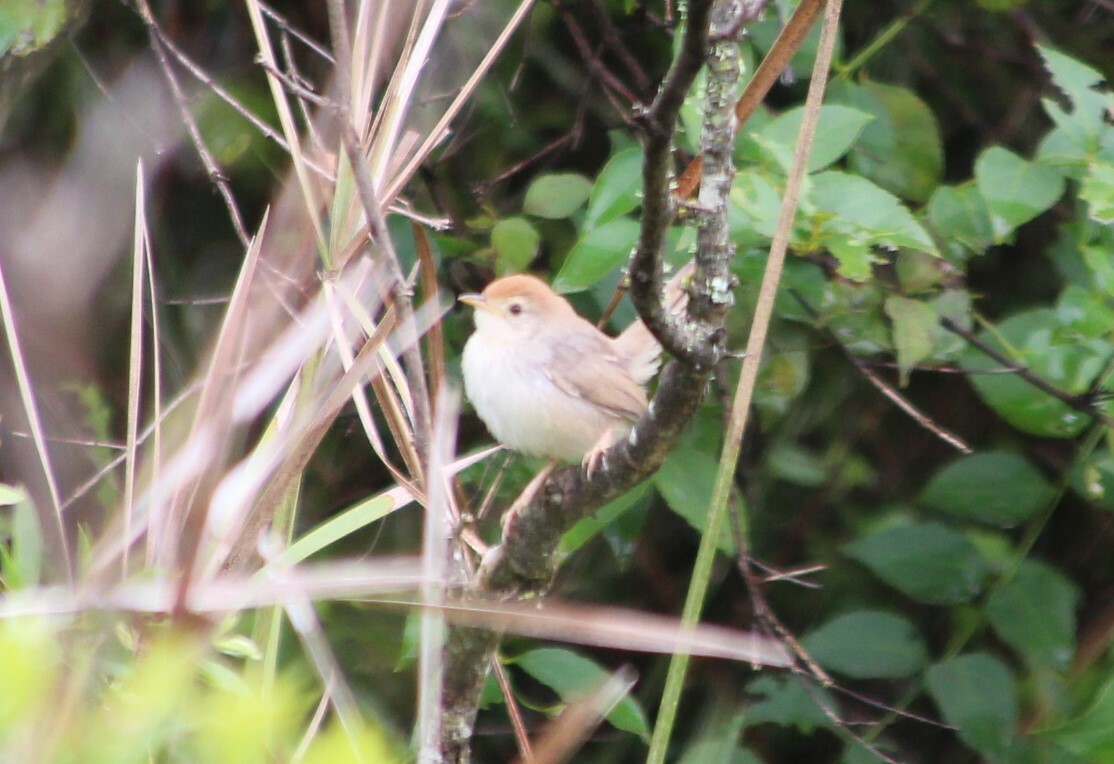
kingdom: Animalia
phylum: Chordata
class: Aves
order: Passeriformes
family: Cisticolidae
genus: Cisticola
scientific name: Cisticola aberrans
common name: Lazy cisticola
